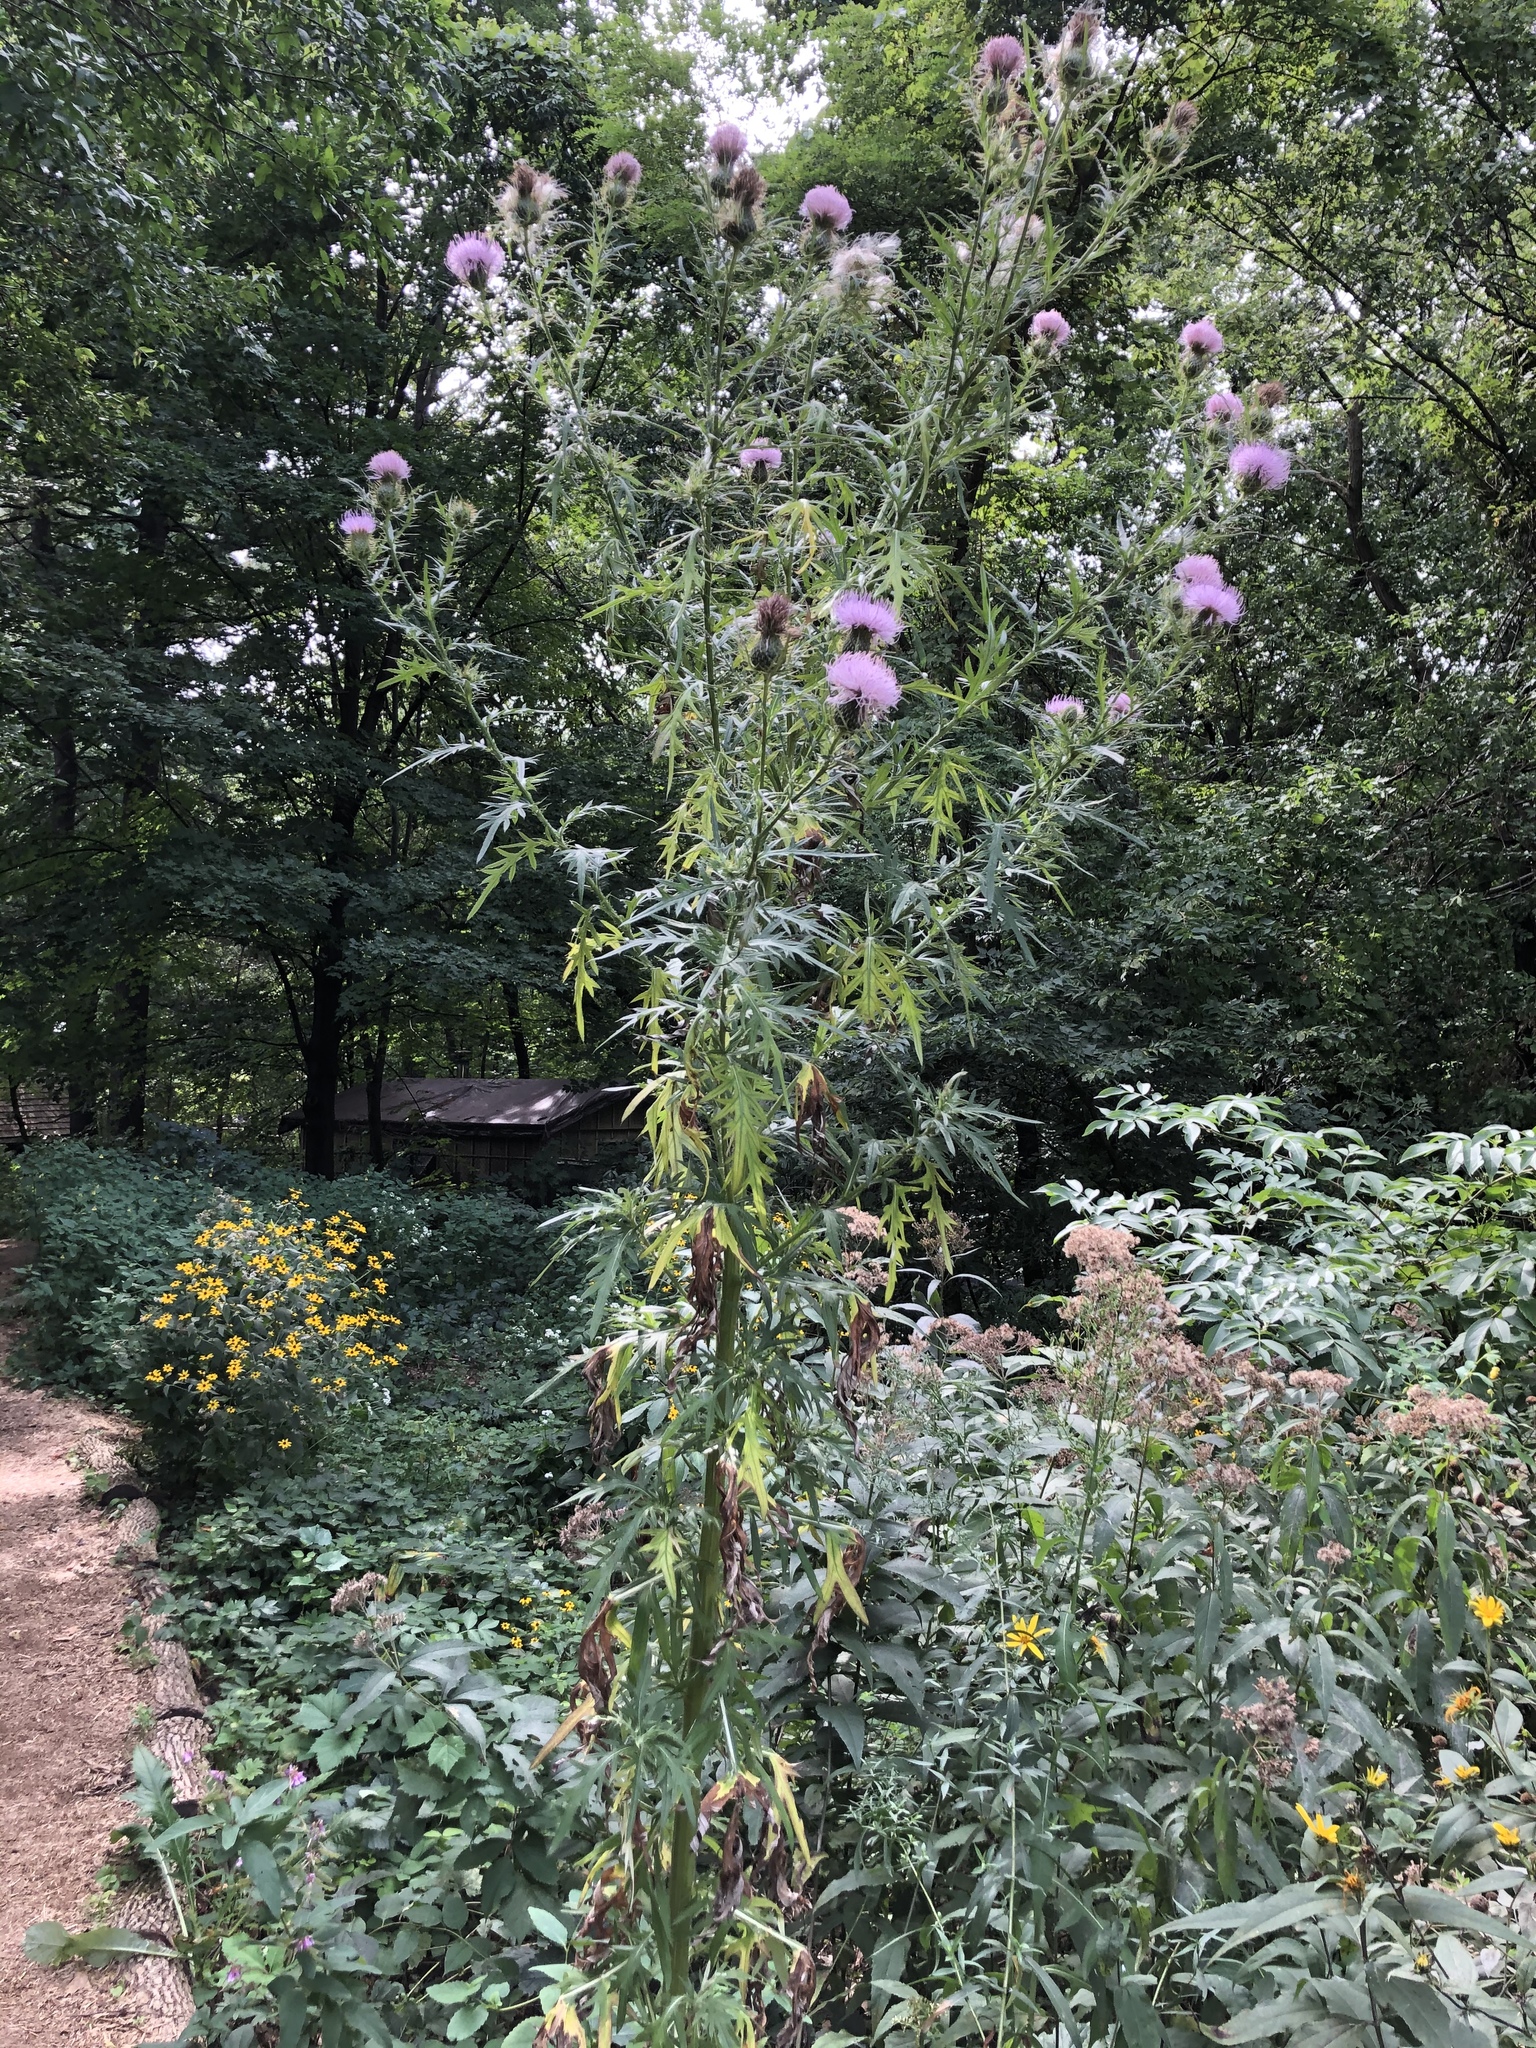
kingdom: Plantae
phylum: Tracheophyta
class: Magnoliopsida
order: Asterales
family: Asteraceae
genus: Cirsium
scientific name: Cirsium discolor
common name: Field thistle
